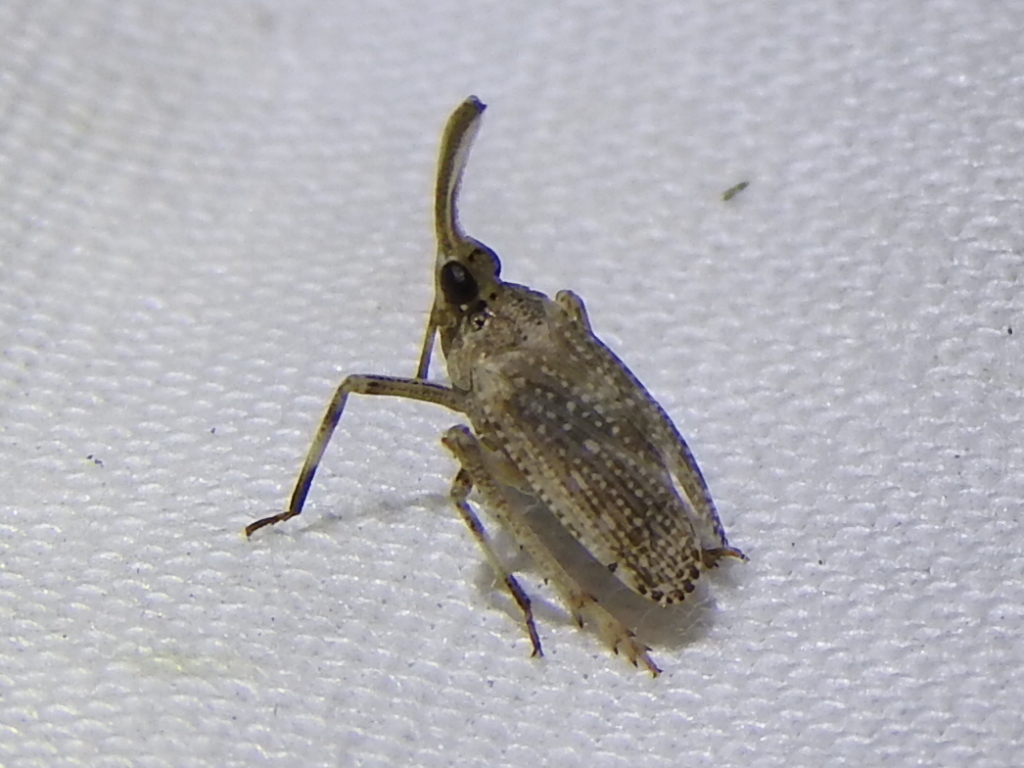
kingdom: Animalia
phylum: Arthropoda
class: Insecta
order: Hemiptera
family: Dictyopharidae
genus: Scolops
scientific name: Scolops pungens
